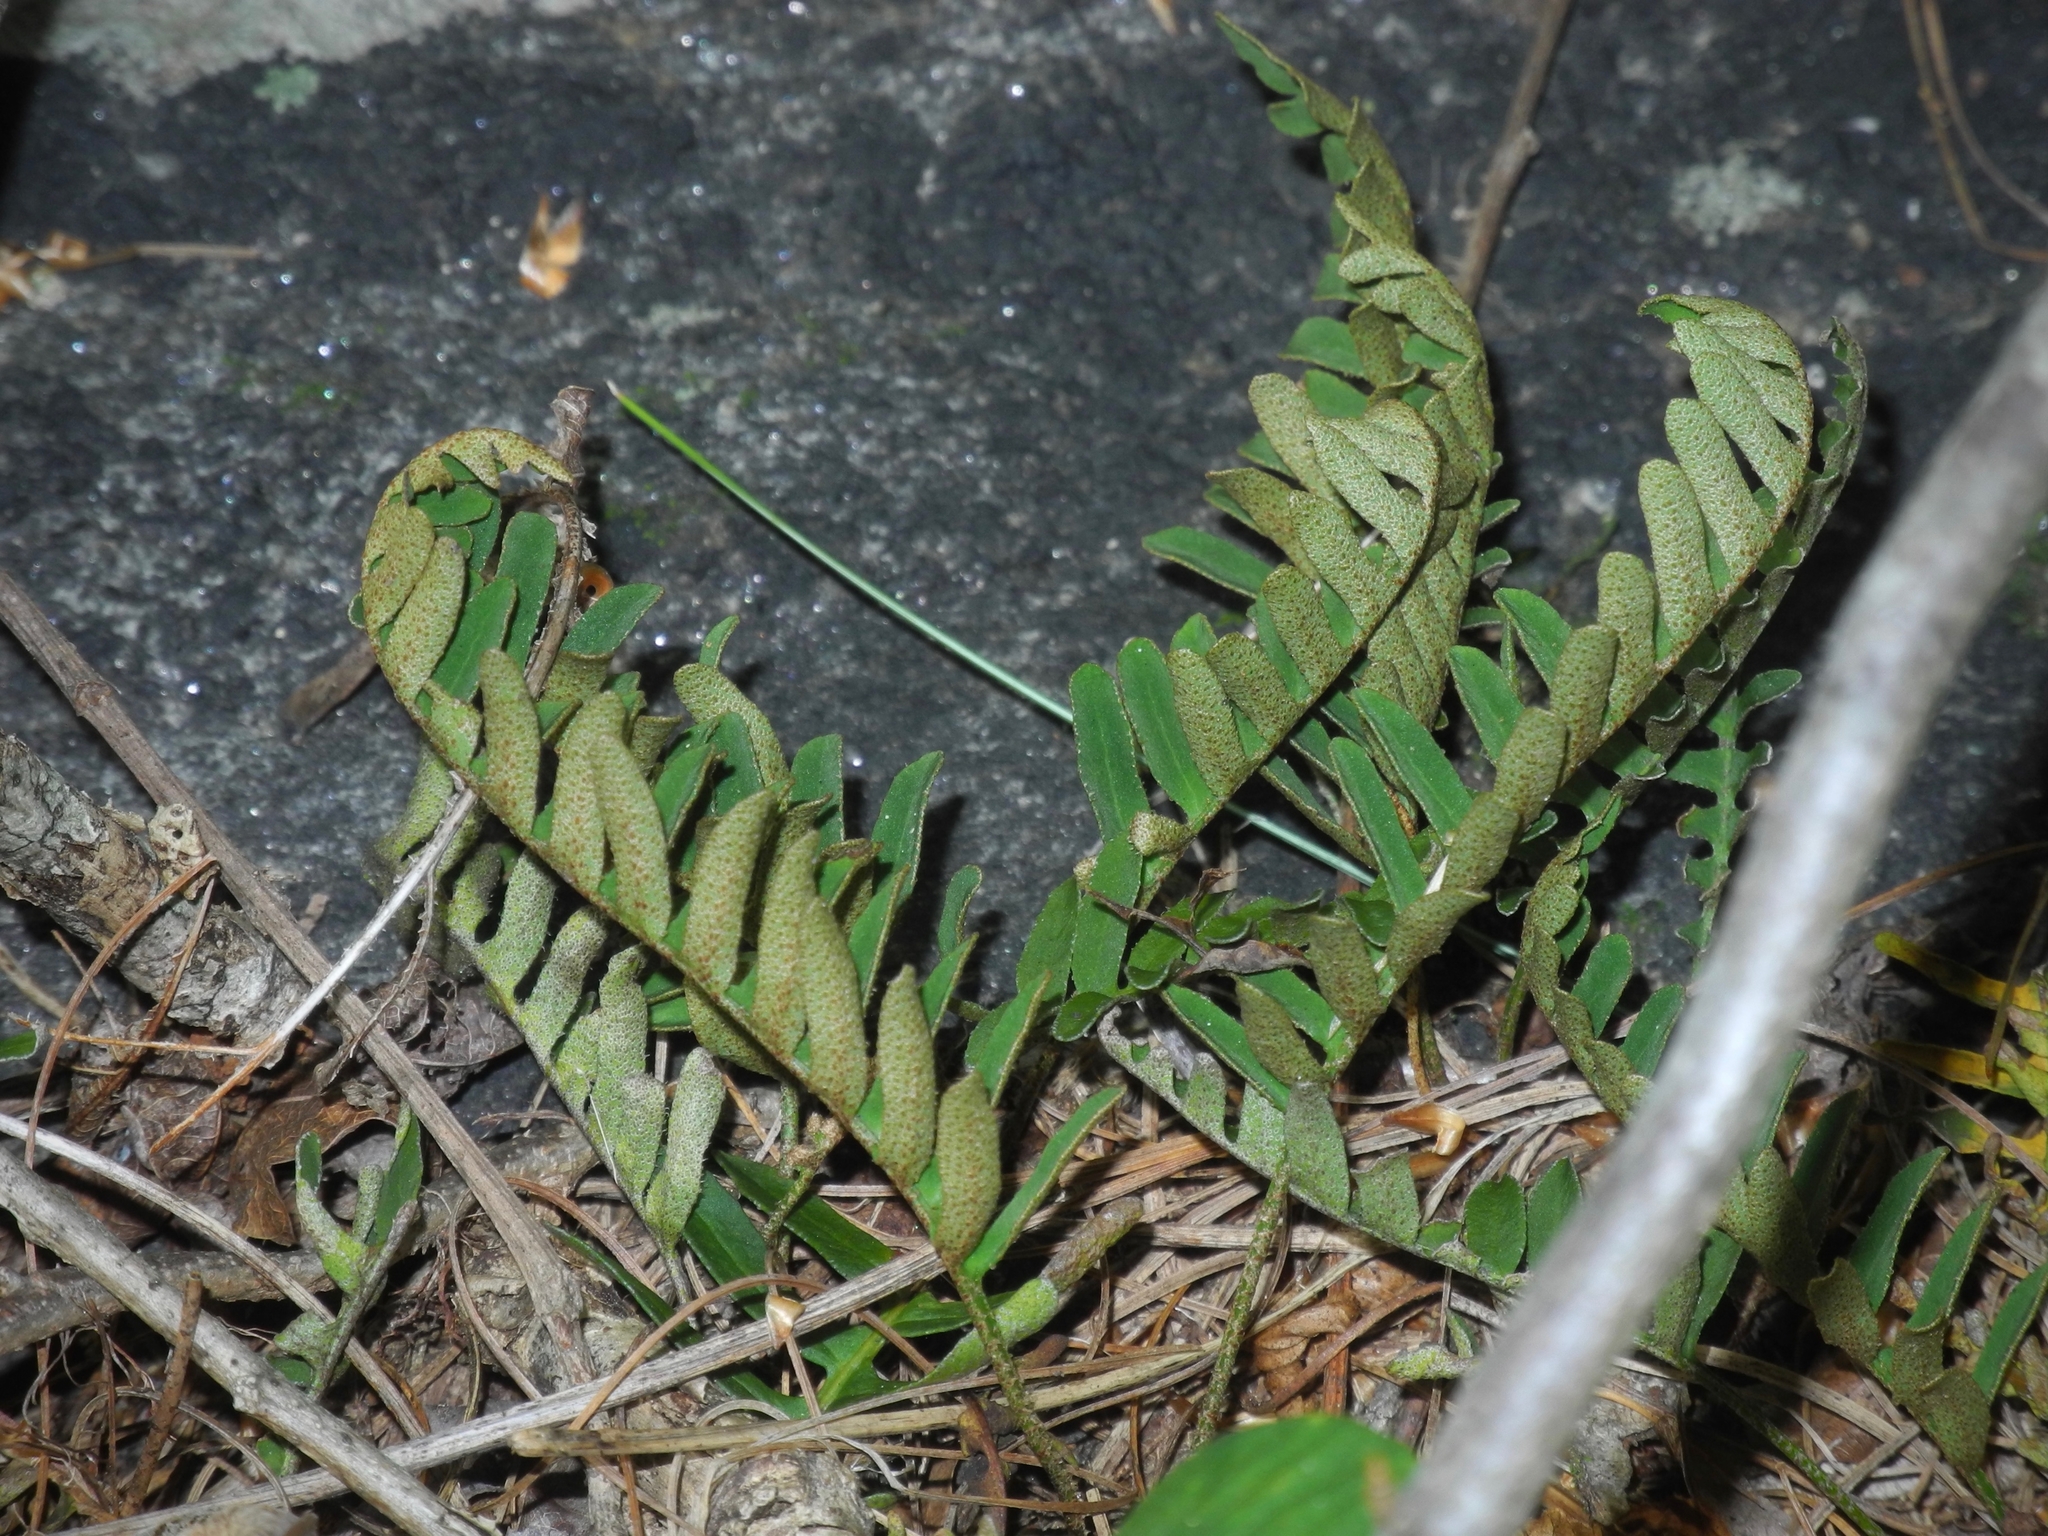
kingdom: Plantae
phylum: Tracheophyta
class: Polypodiopsida
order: Polypodiales
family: Polypodiaceae
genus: Pleopeltis
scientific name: Pleopeltis michauxiana
